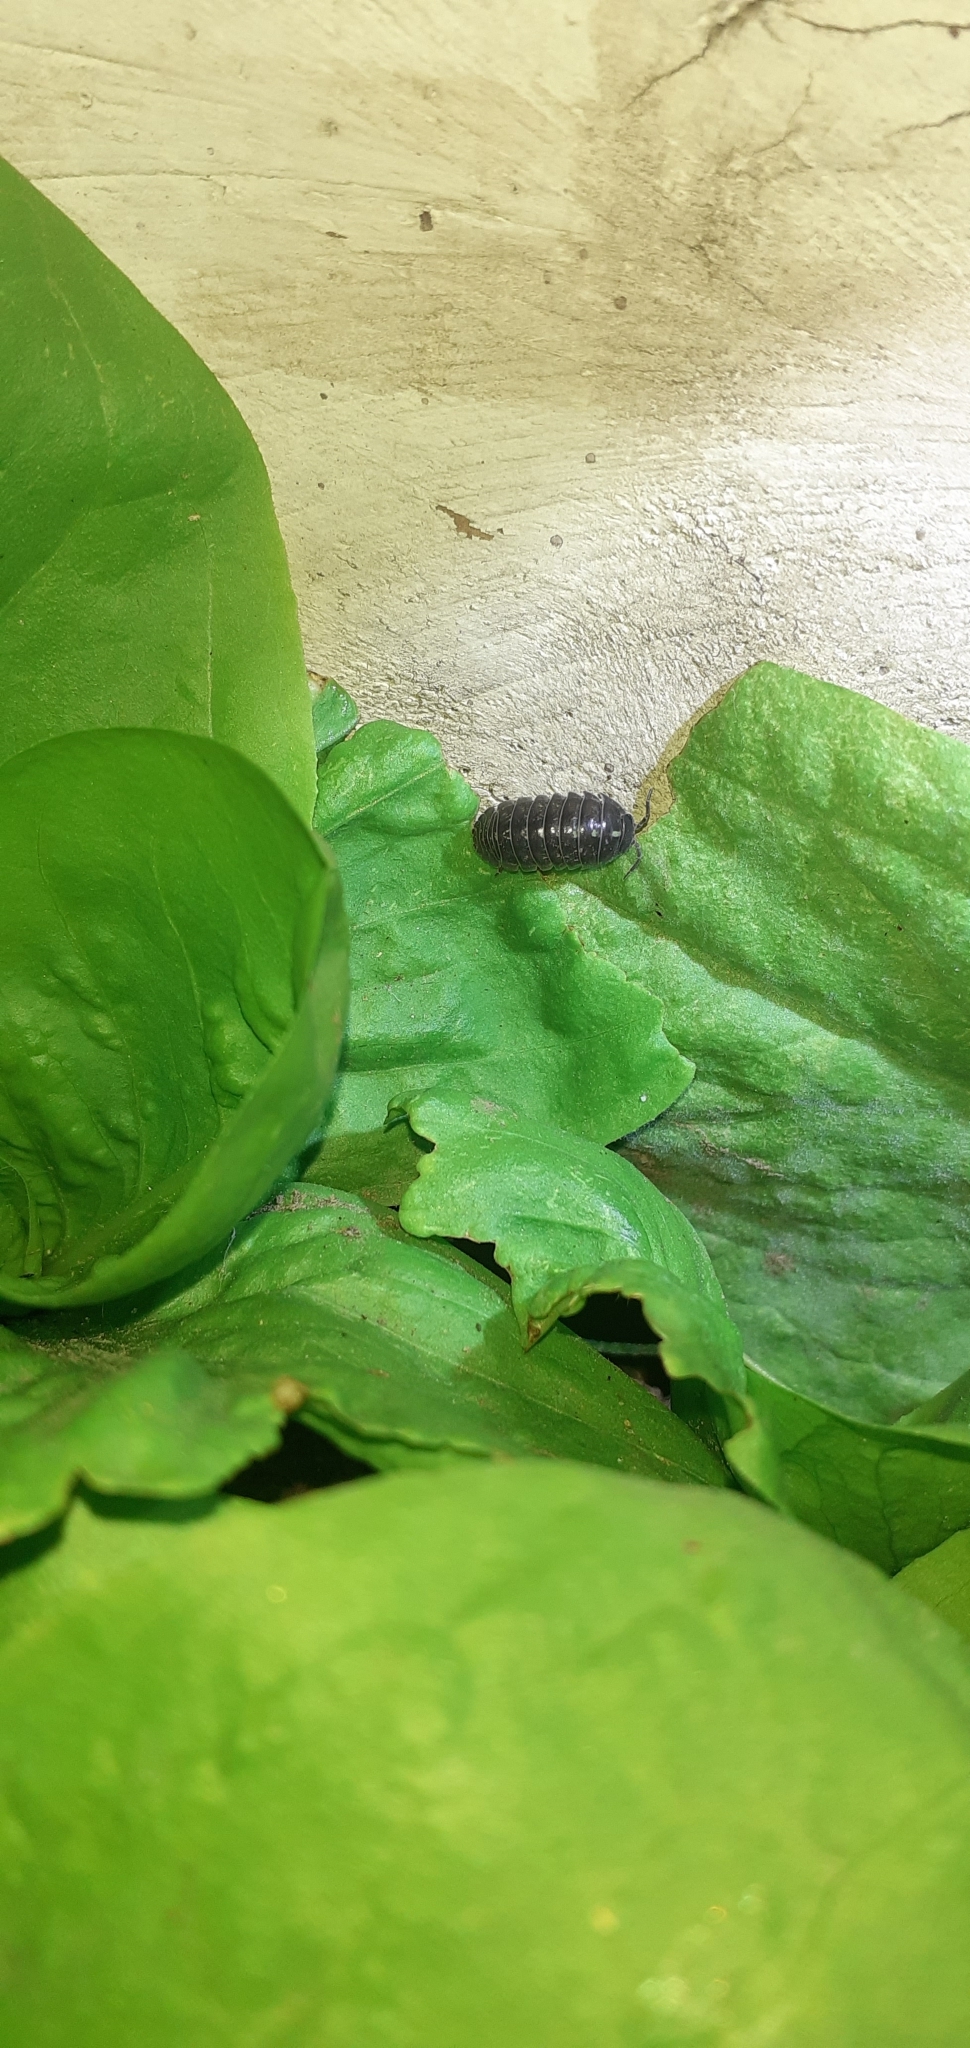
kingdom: Animalia
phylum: Arthropoda
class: Malacostraca
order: Isopoda
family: Armadillidiidae
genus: Armadillidium
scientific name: Armadillidium vulgare
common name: Common pill woodlouse
